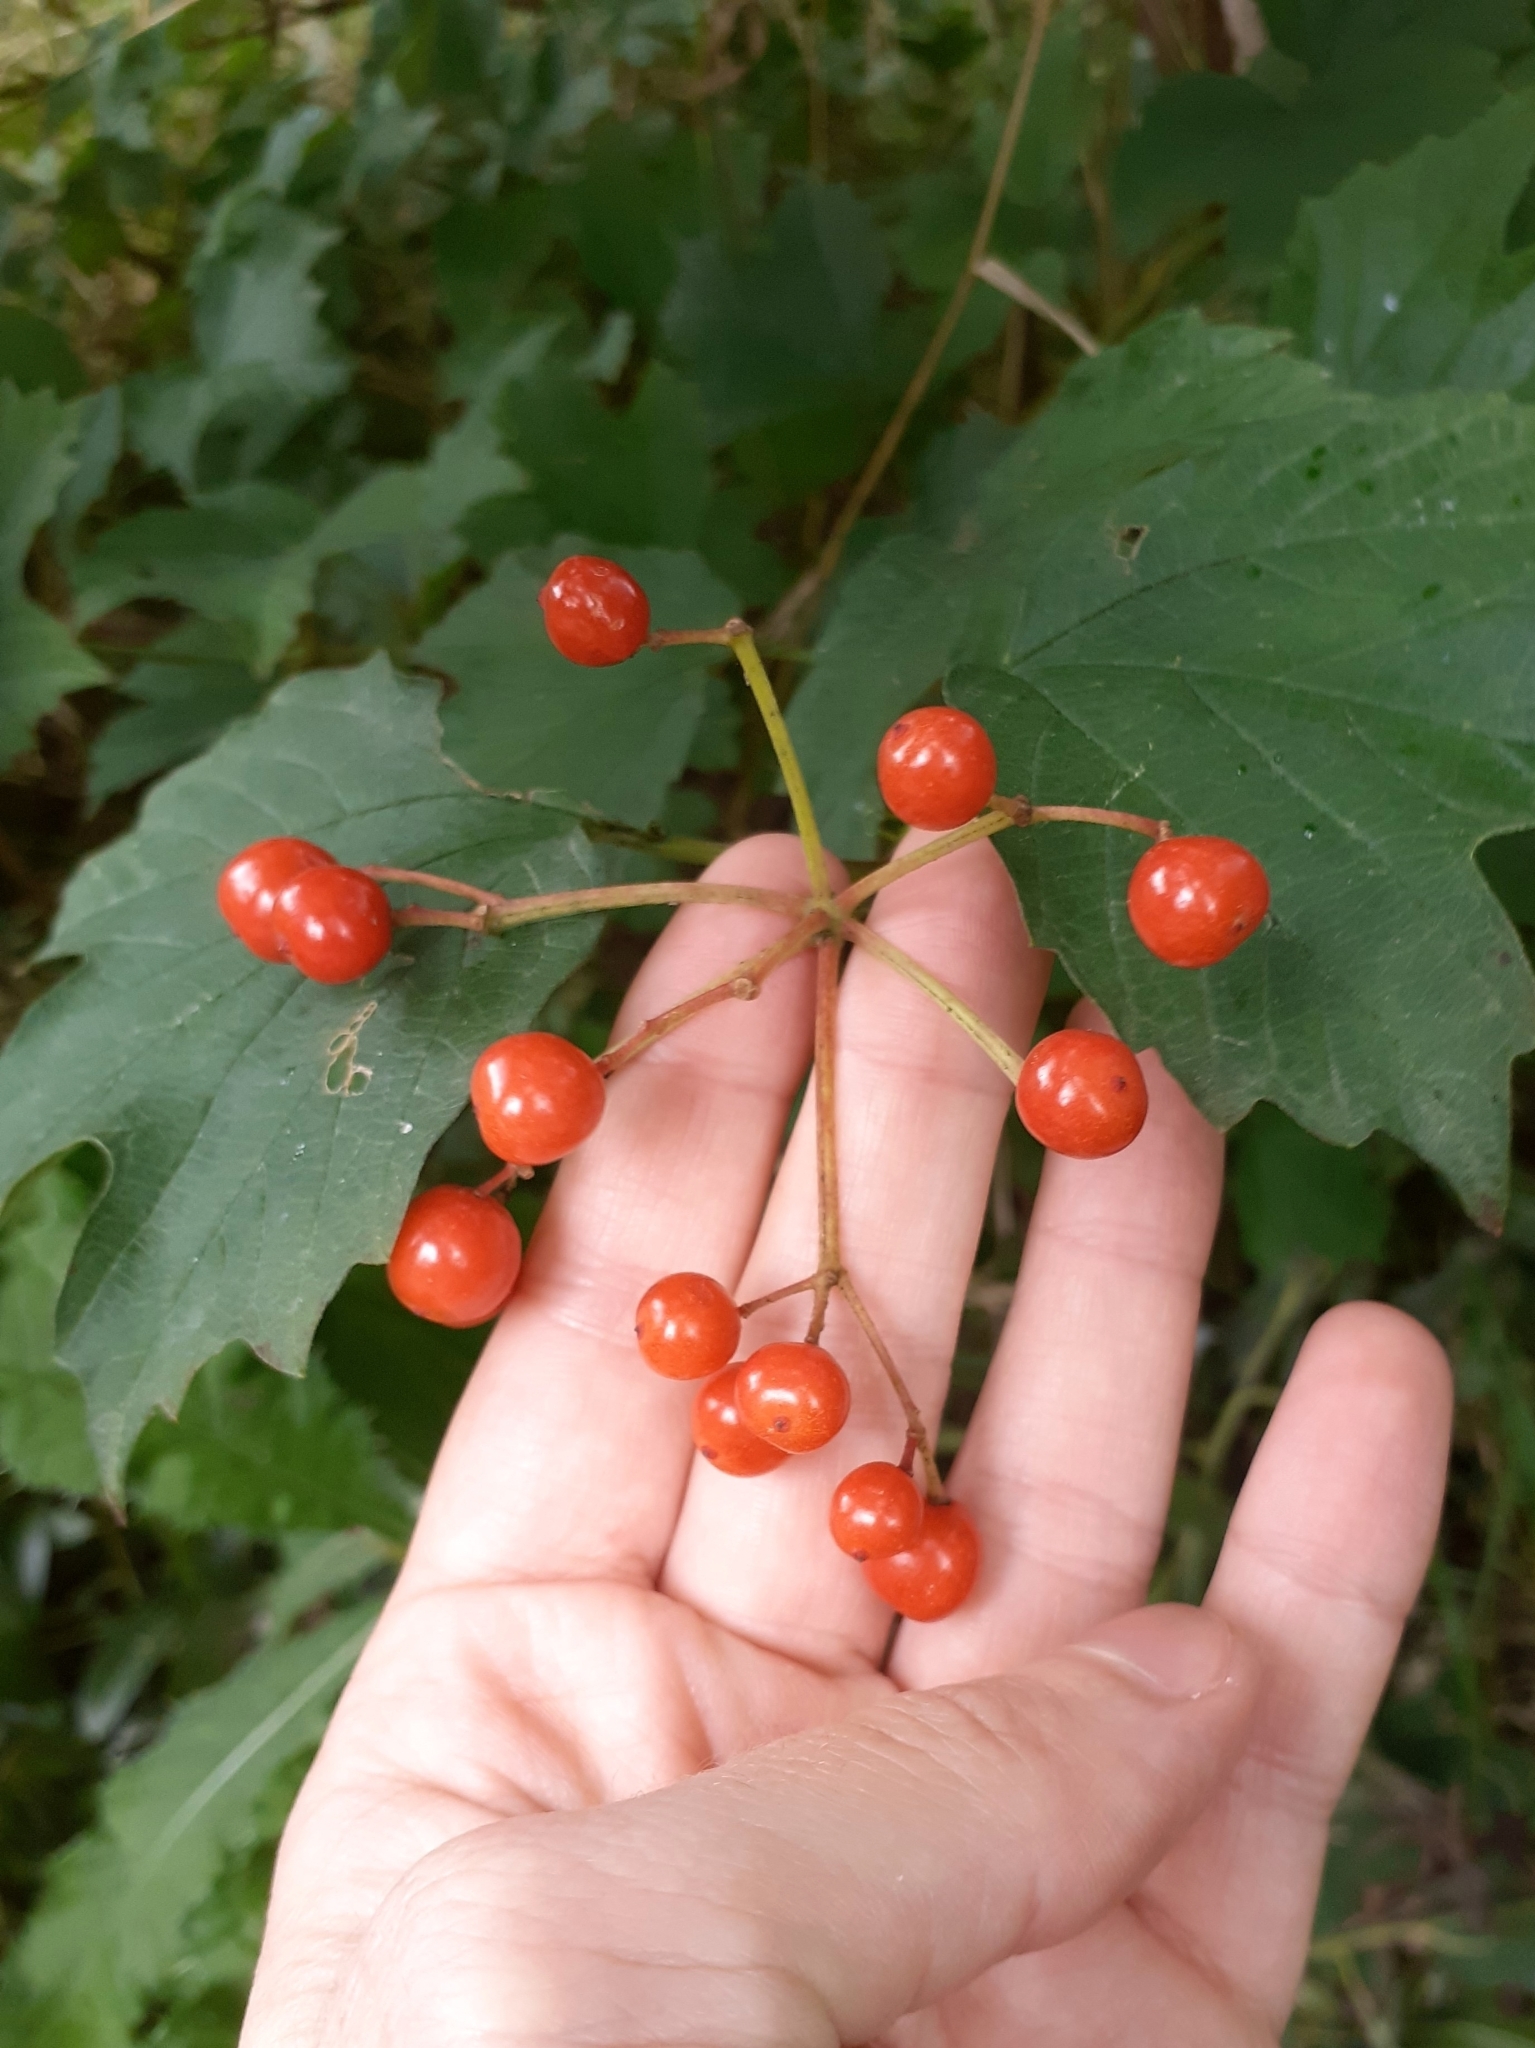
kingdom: Plantae
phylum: Tracheophyta
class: Magnoliopsida
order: Dipsacales
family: Viburnaceae
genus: Viburnum
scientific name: Viburnum opulus
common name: Guelder-rose
